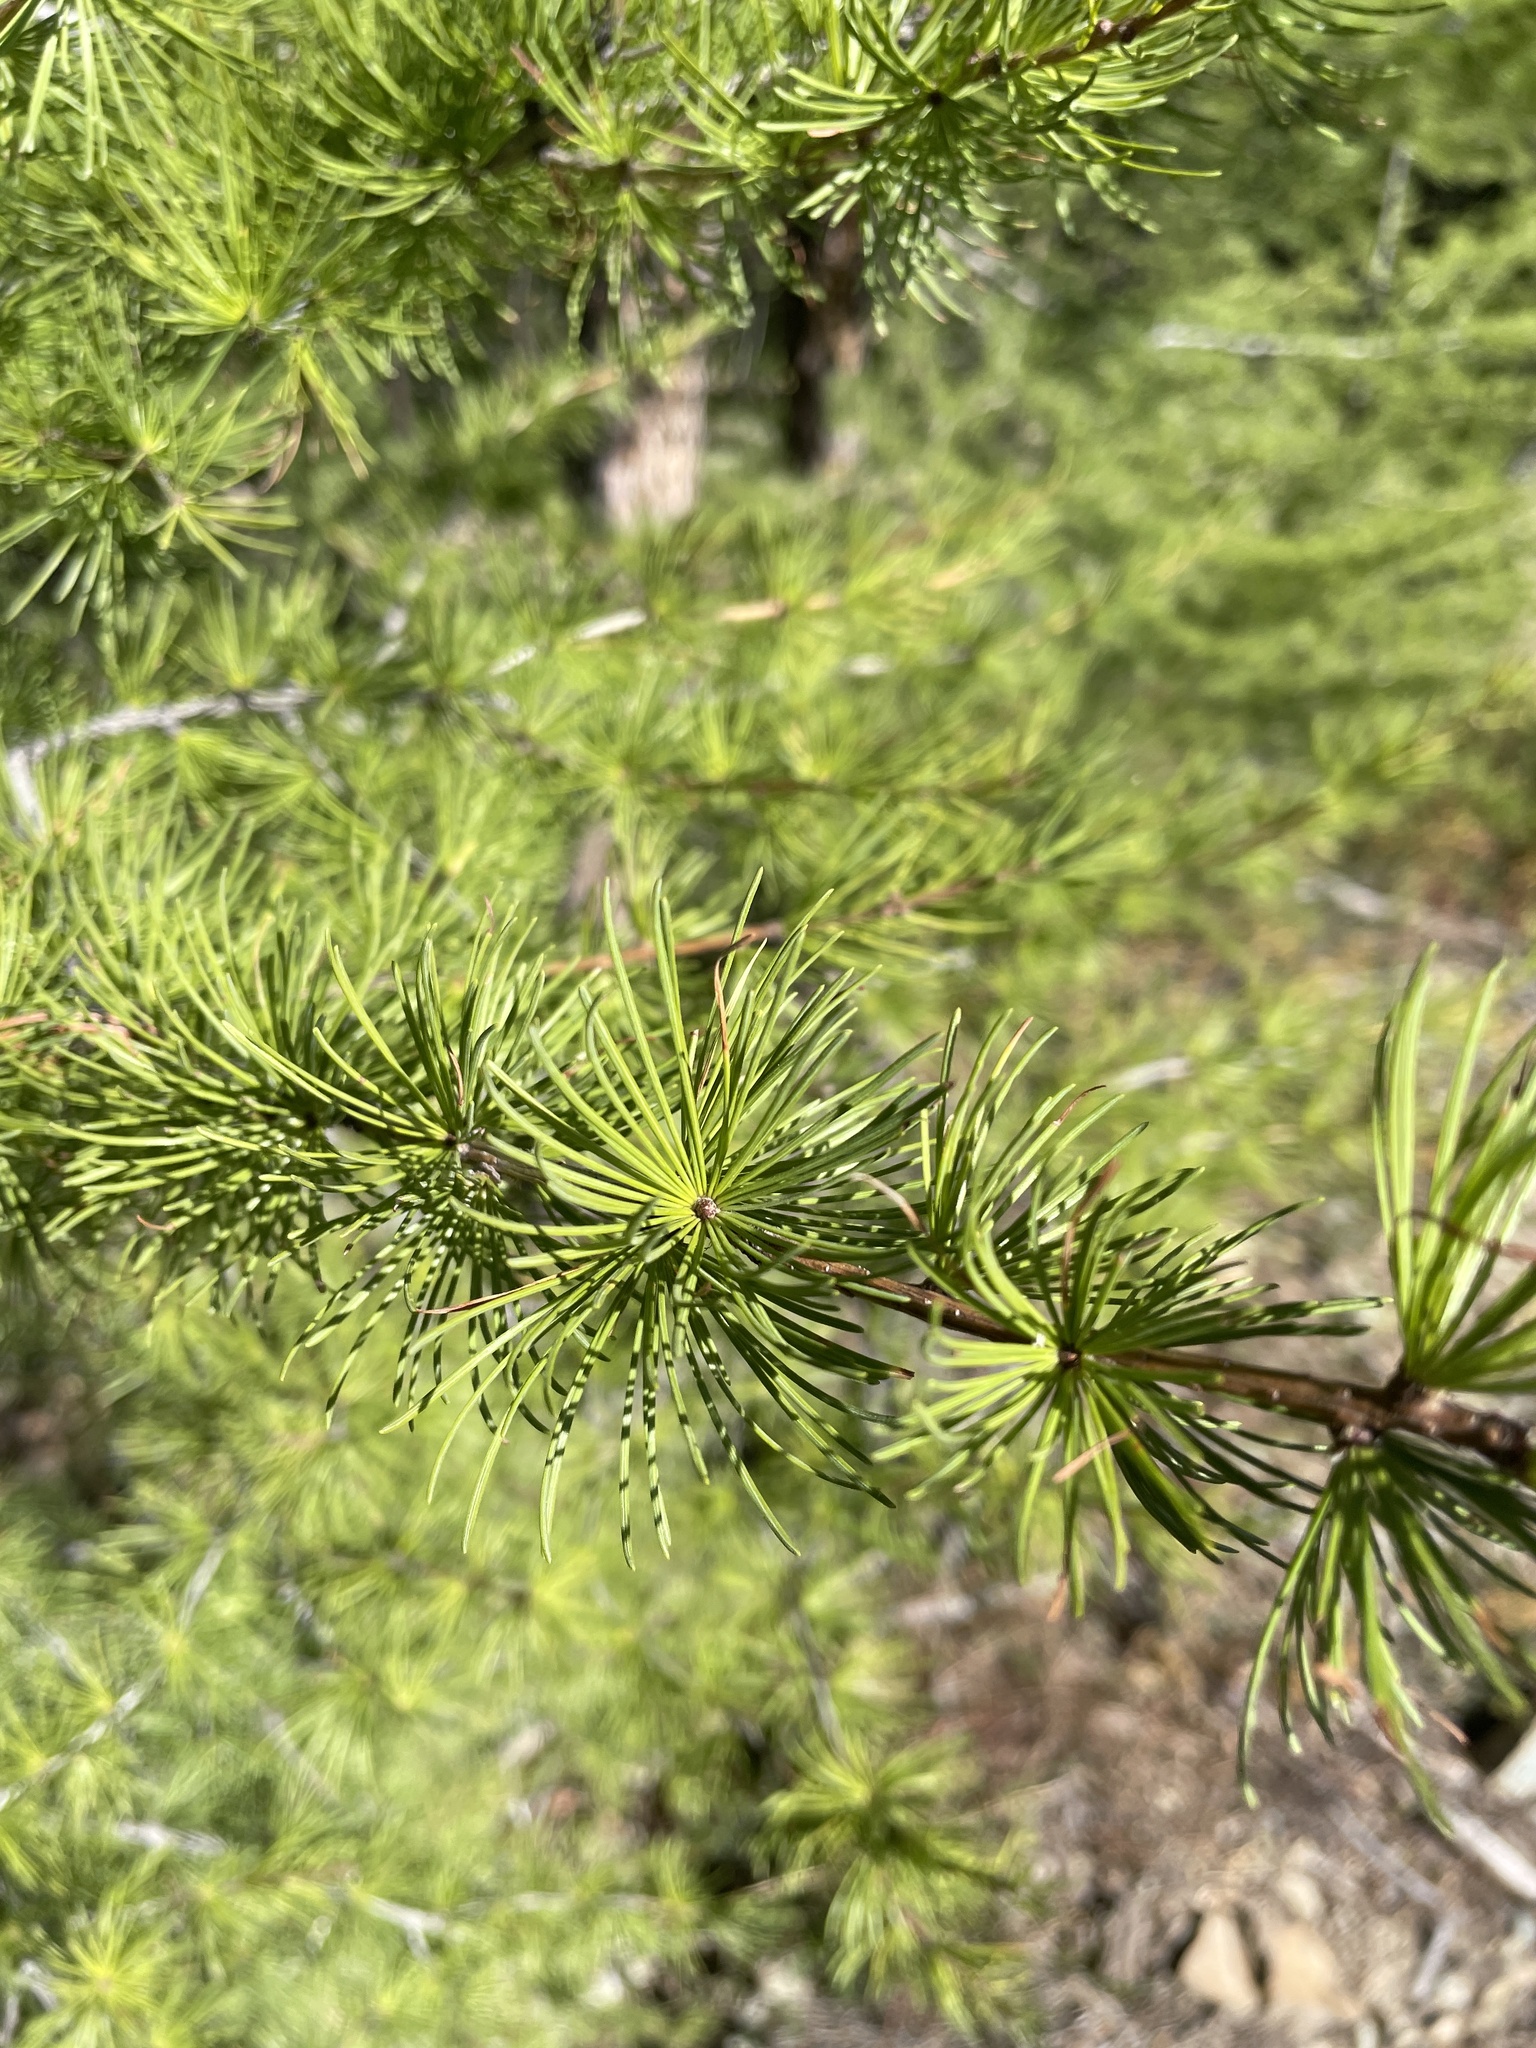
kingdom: Plantae
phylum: Tracheophyta
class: Pinopsida
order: Pinales
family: Pinaceae
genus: Larix
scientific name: Larix occidentalis
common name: Western larch
